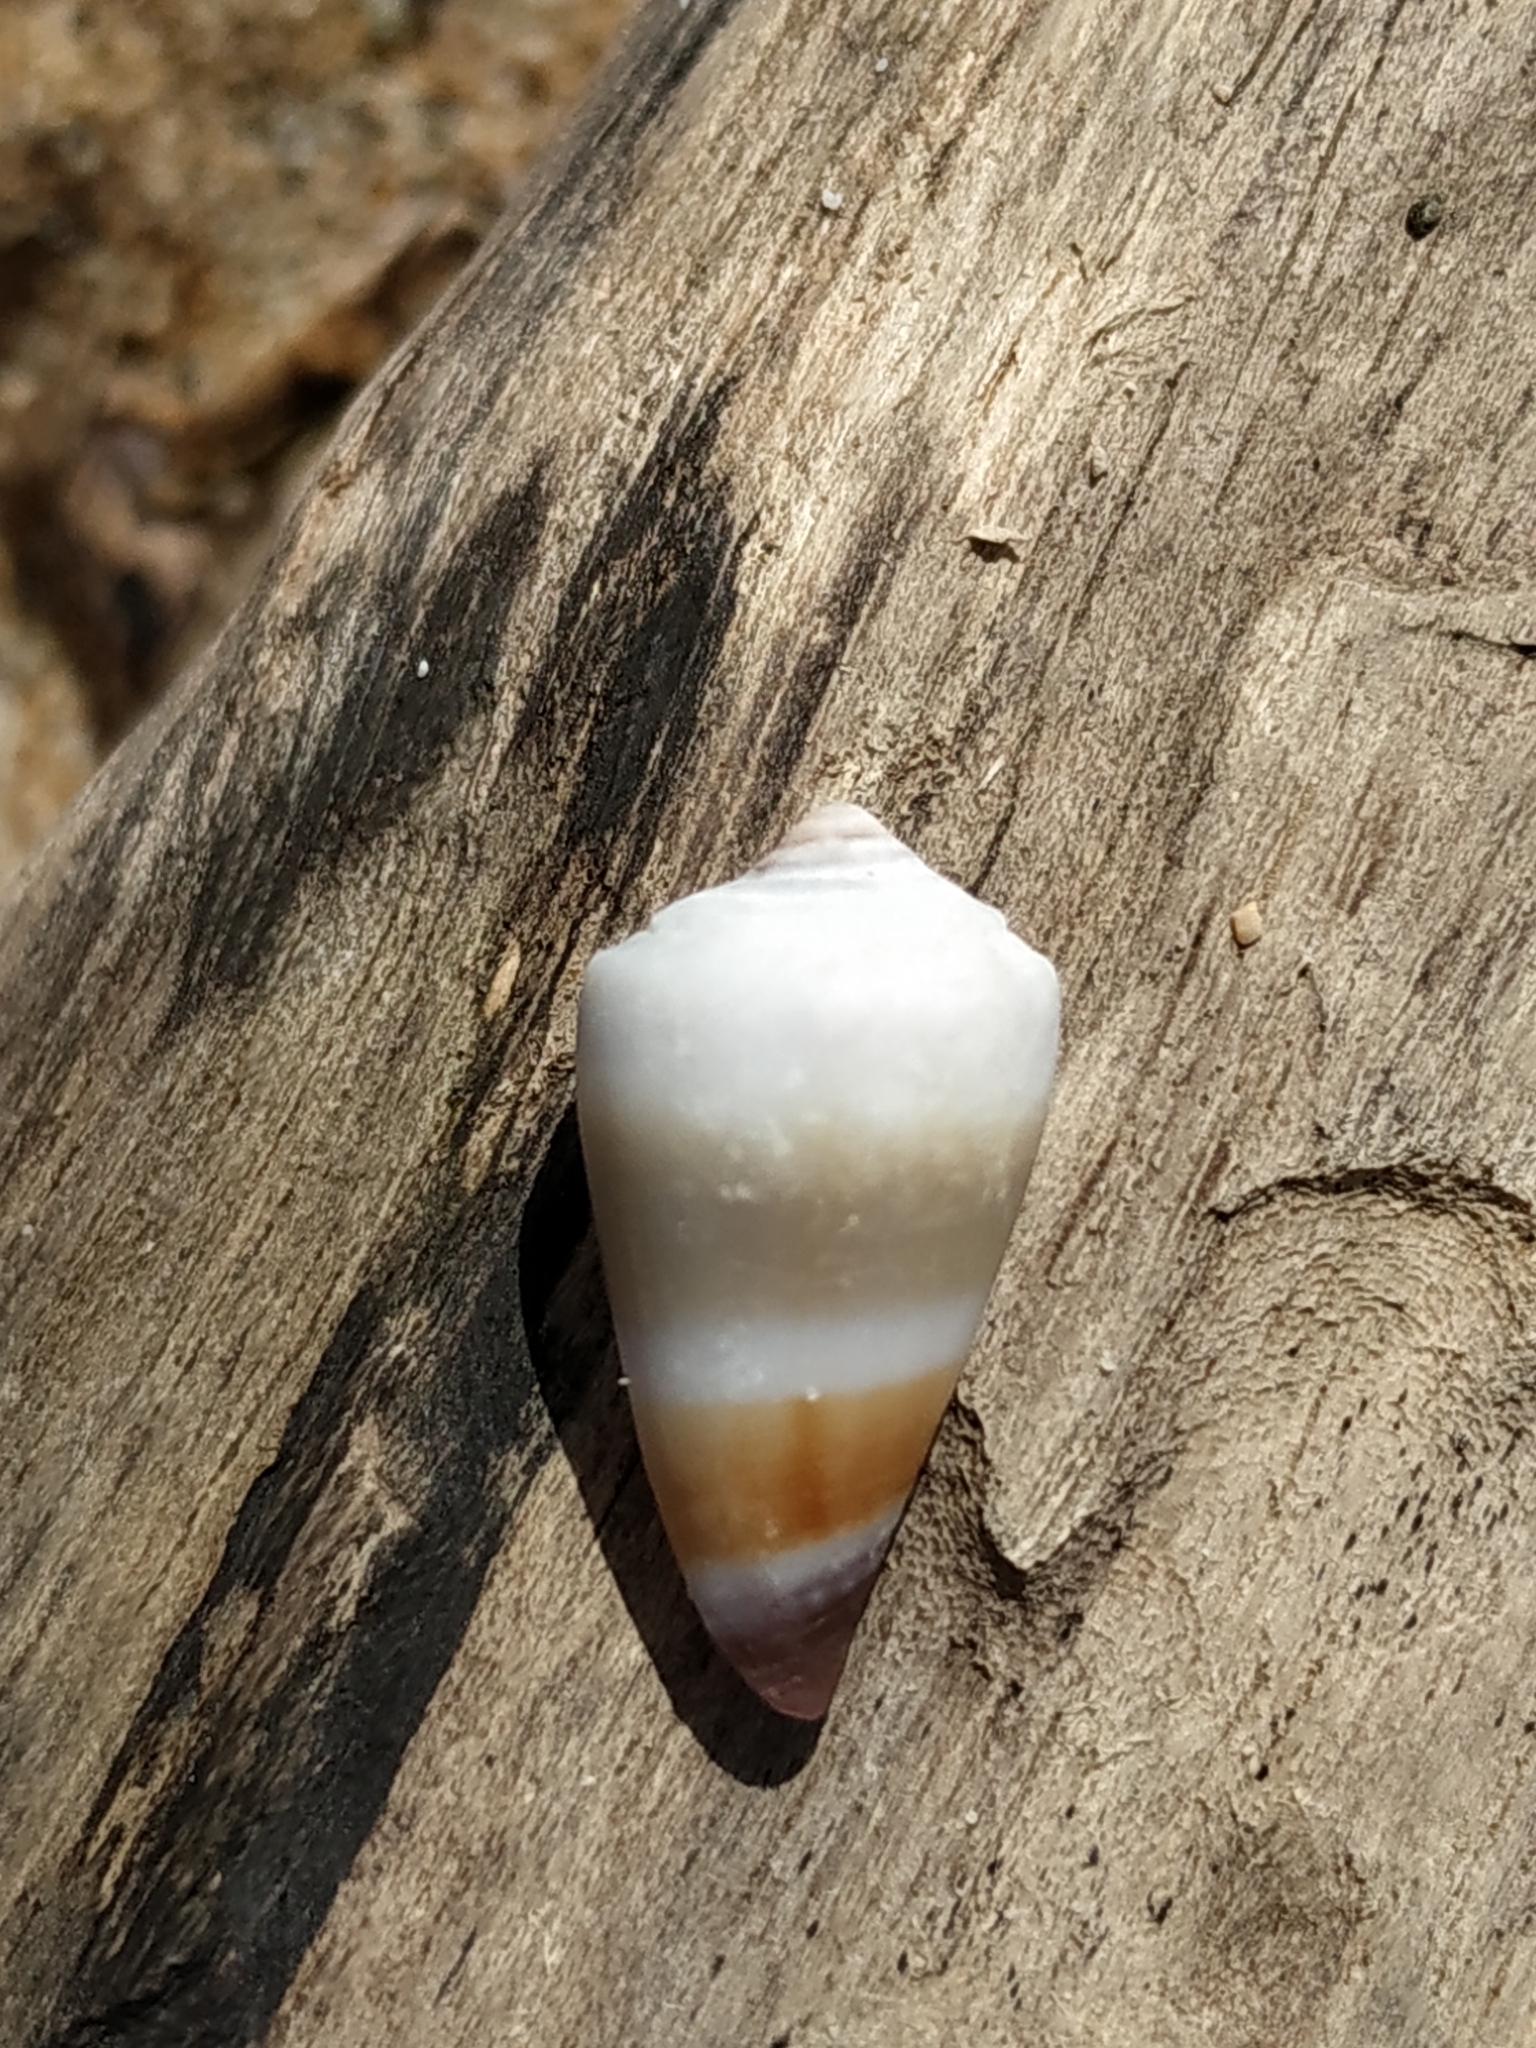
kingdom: Animalia
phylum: Mollusca
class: Gastropoda
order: Neogastropoda
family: Conidae
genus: Conus
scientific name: Conus muriculatus
